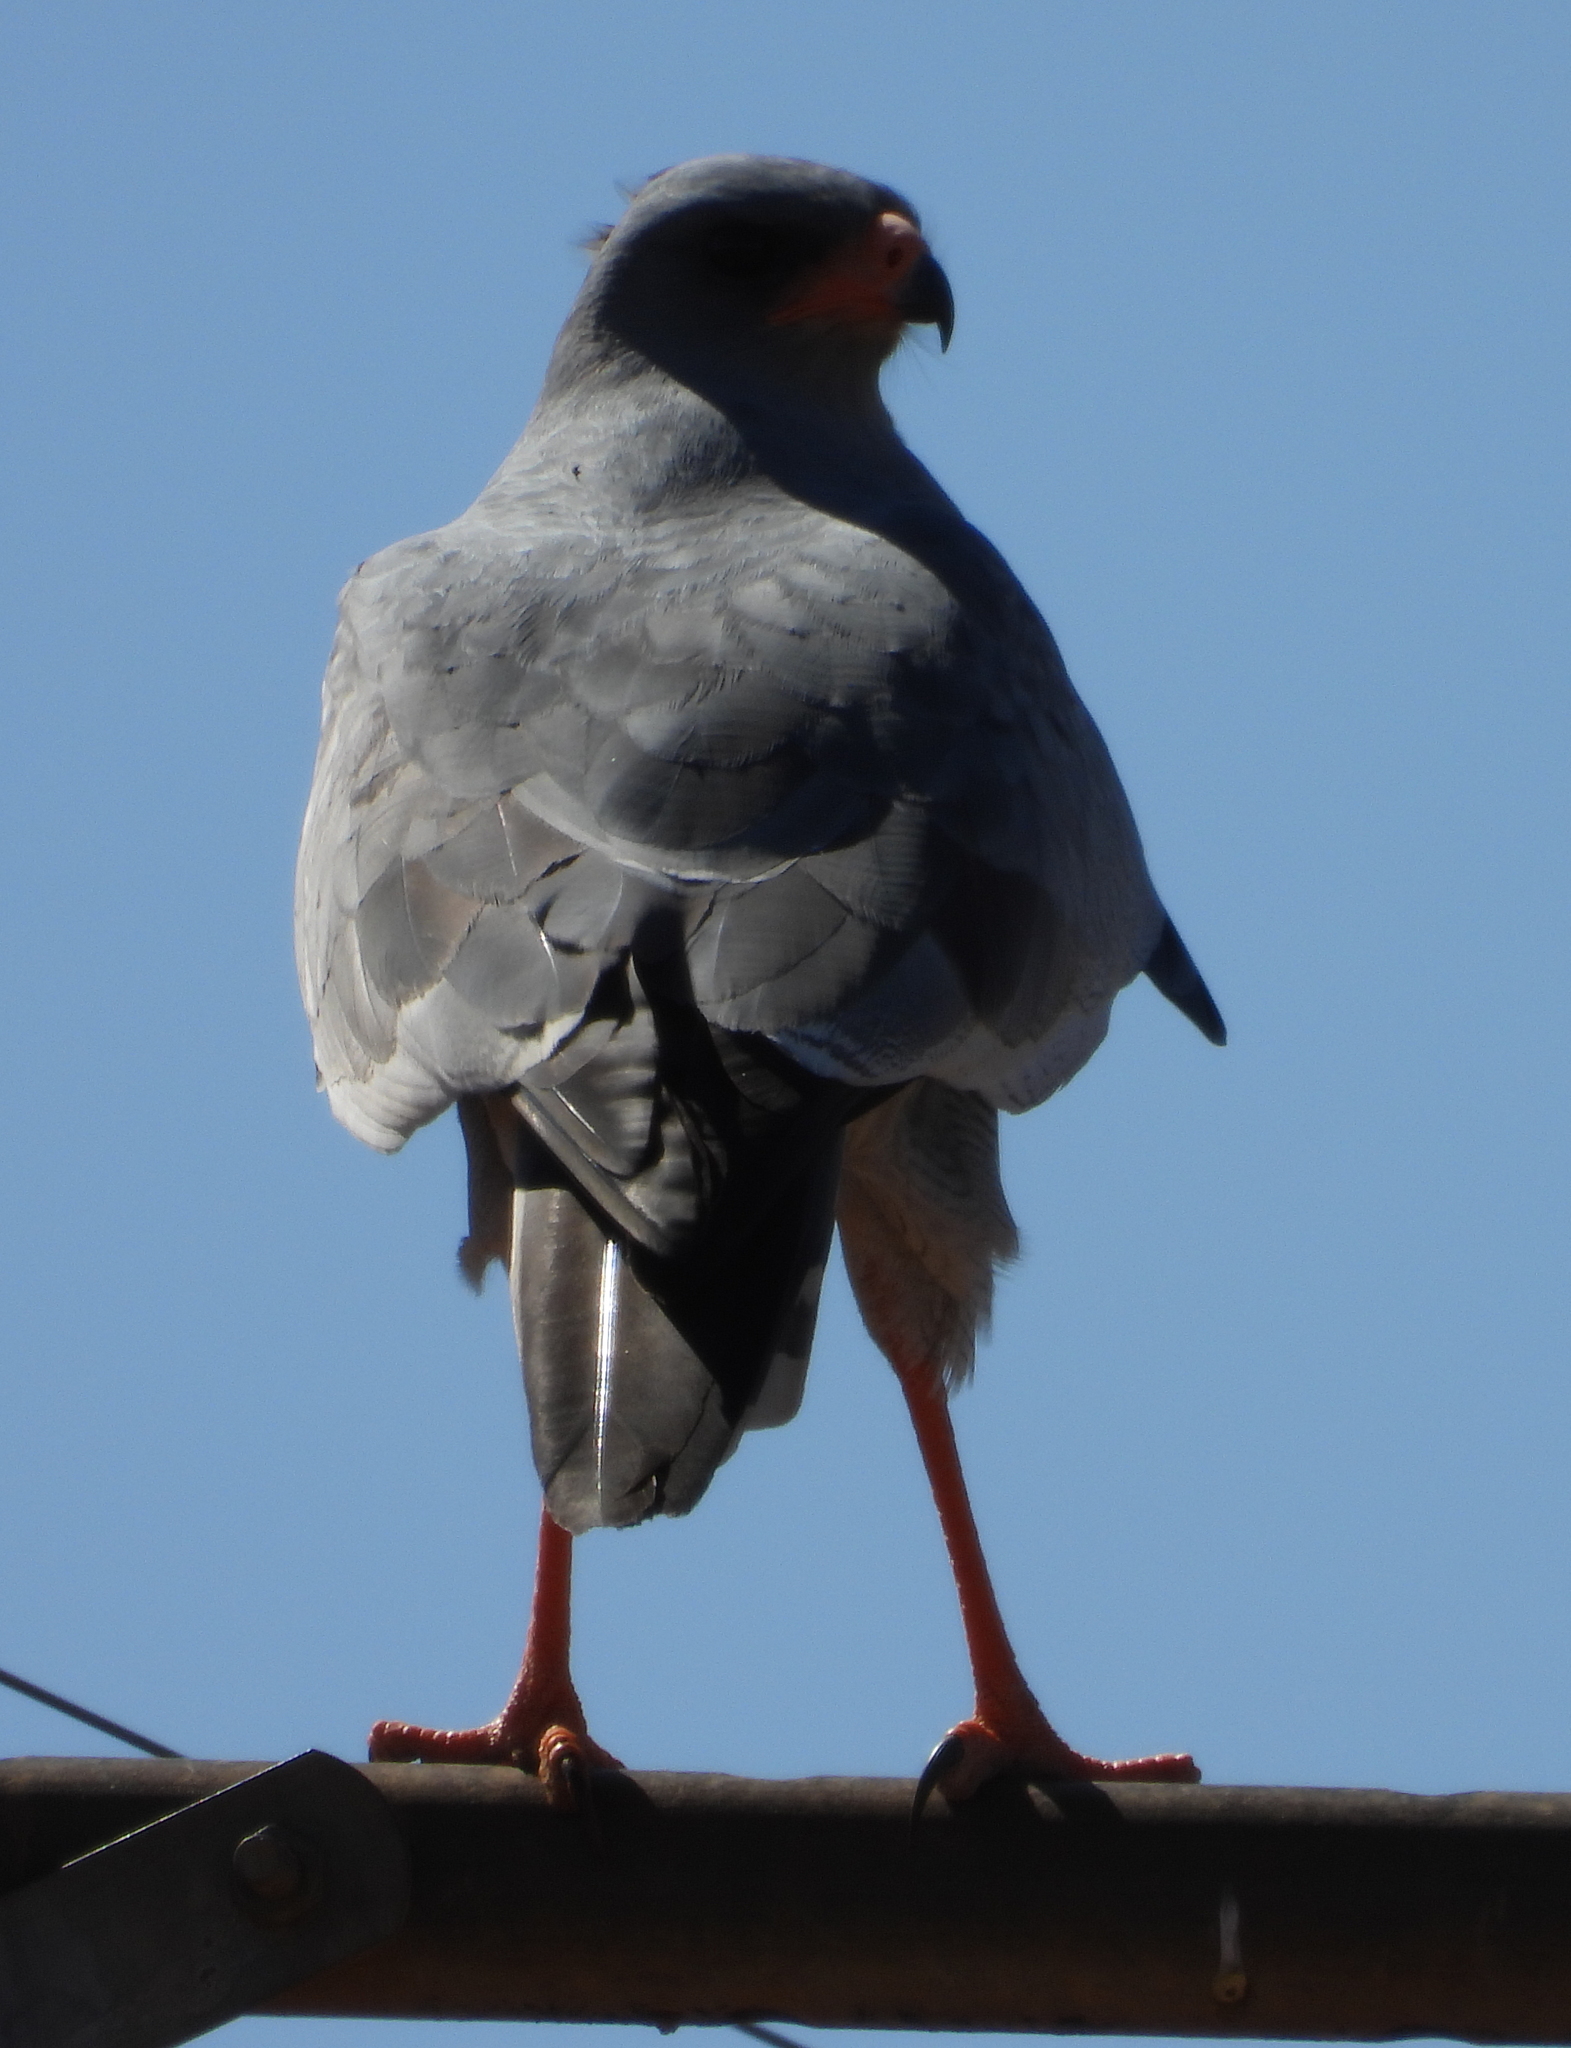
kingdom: Animalia
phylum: Chordata
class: Aves
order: Accipitriformes
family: Accipitridae
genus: Melierax
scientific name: Melierax canorus
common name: Pale chanting-goshawk
